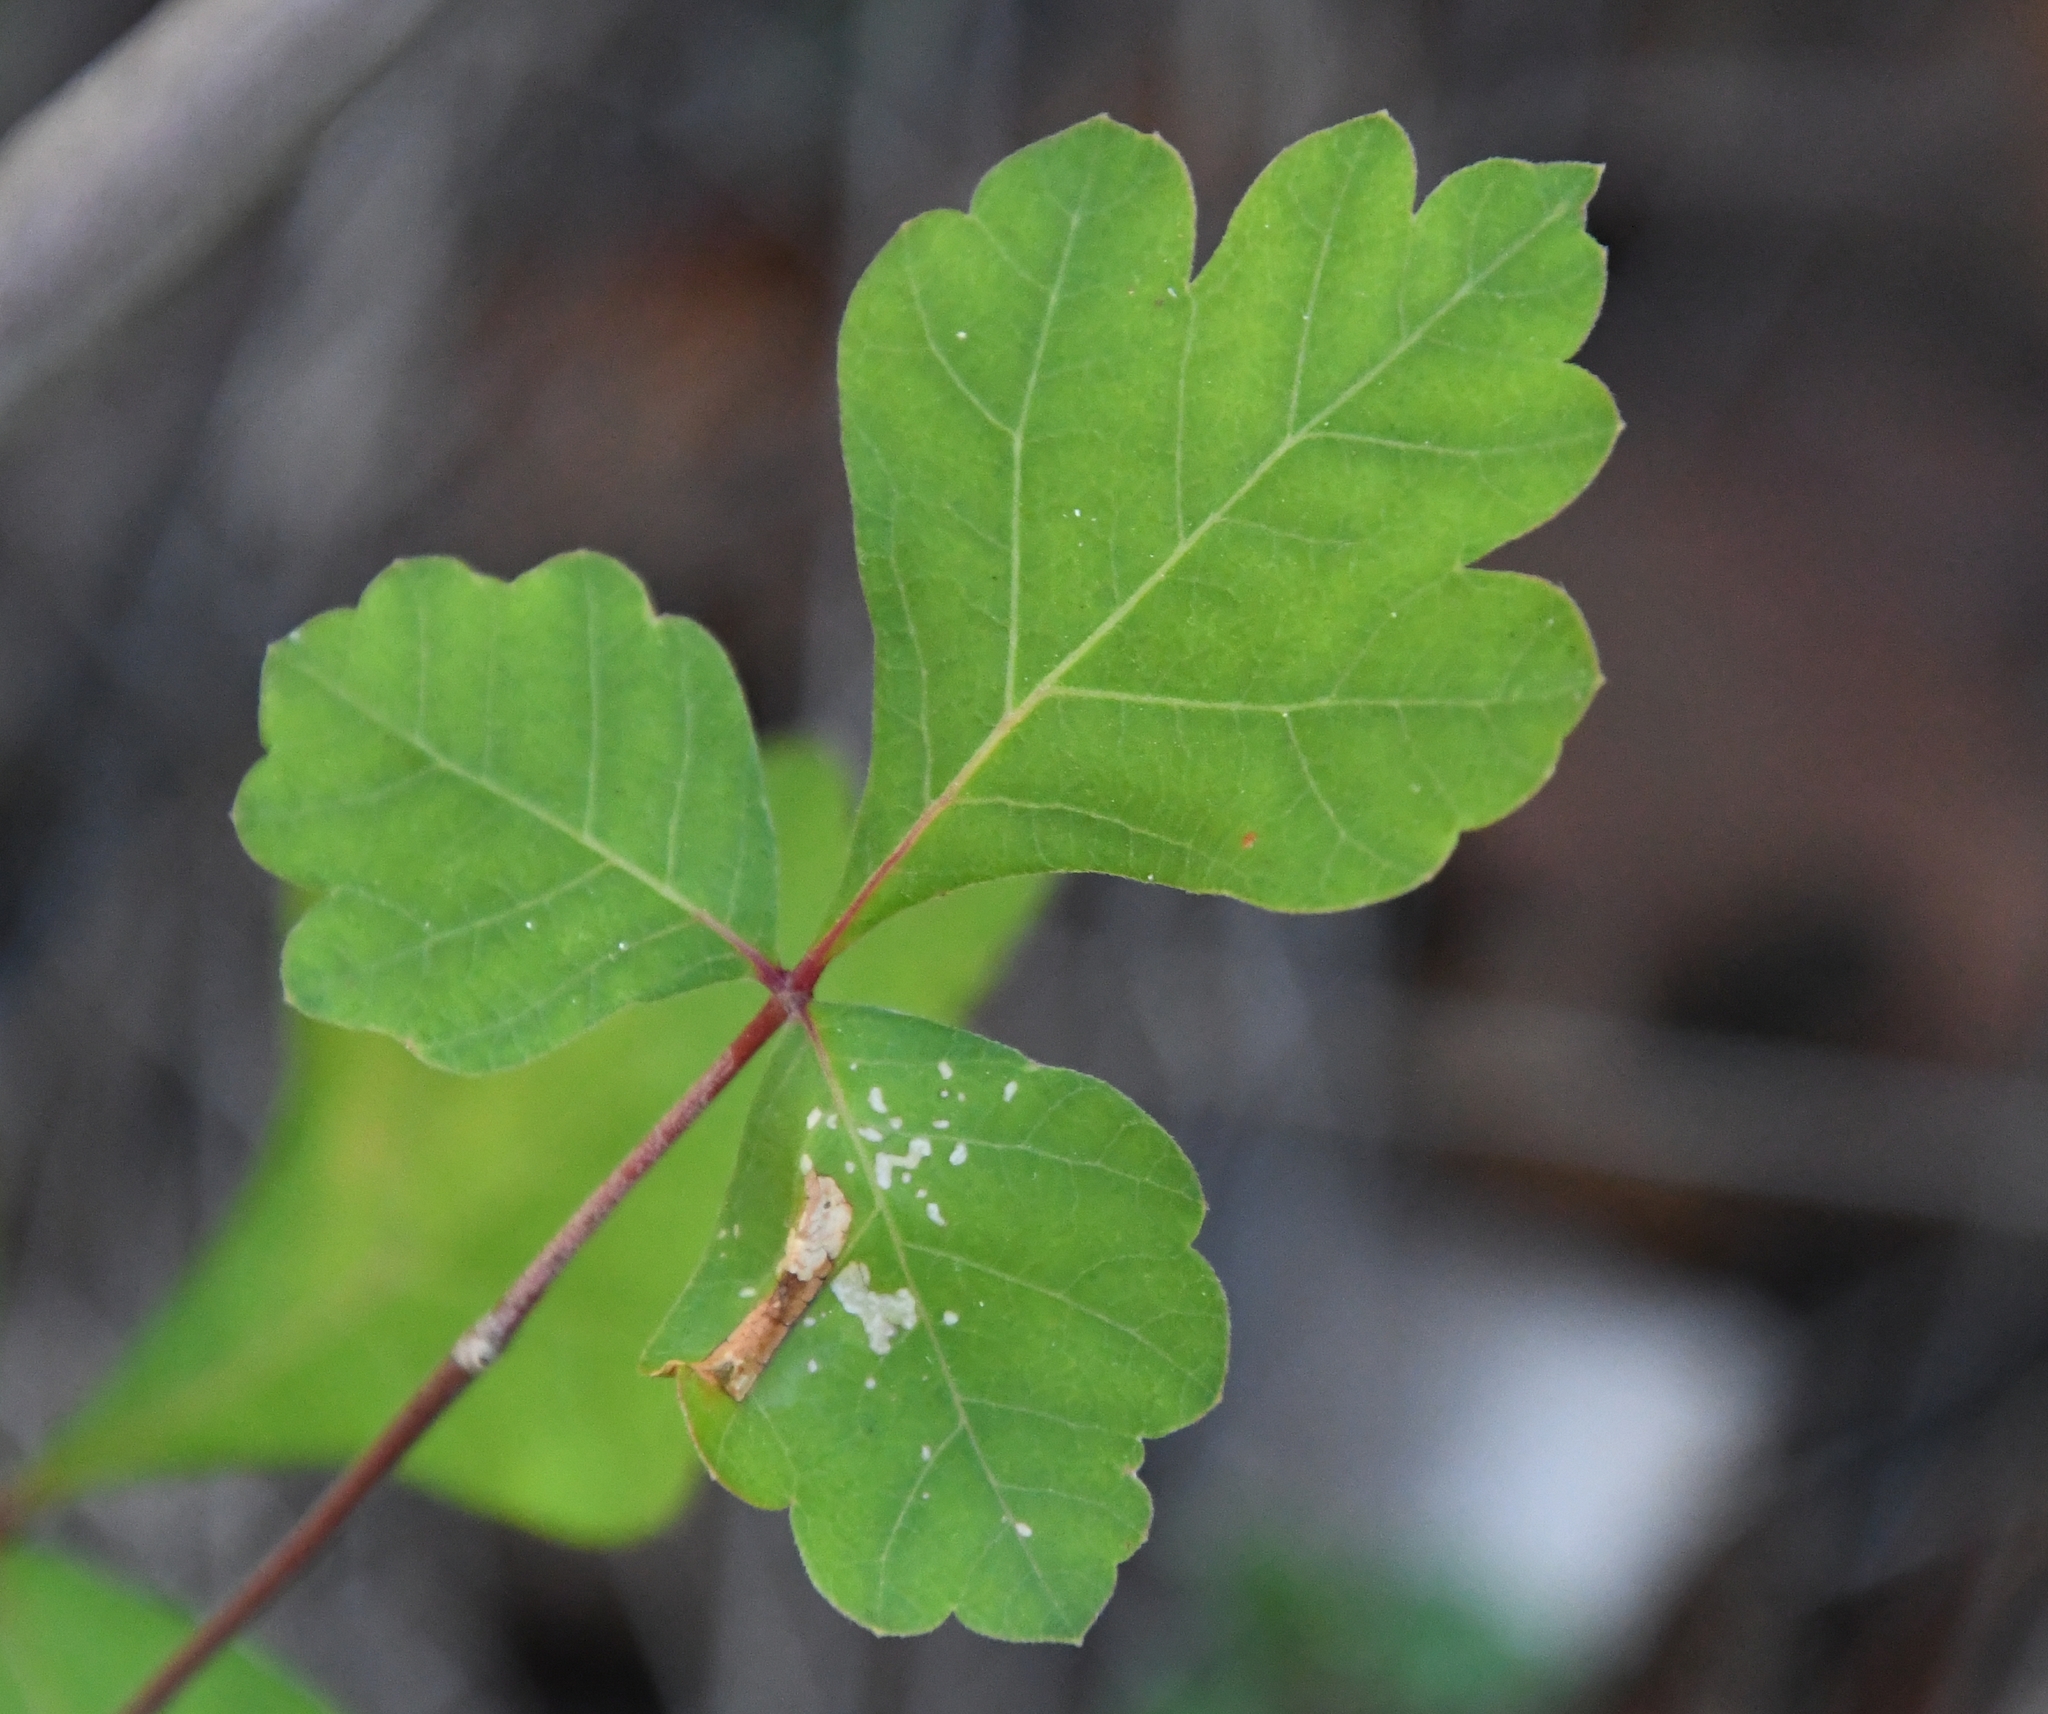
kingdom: Plantae
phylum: Tracheophyta
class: Magnoliopsida
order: Sapindales
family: Anacardiaceae
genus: Rhus
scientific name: Rhus trilobata
